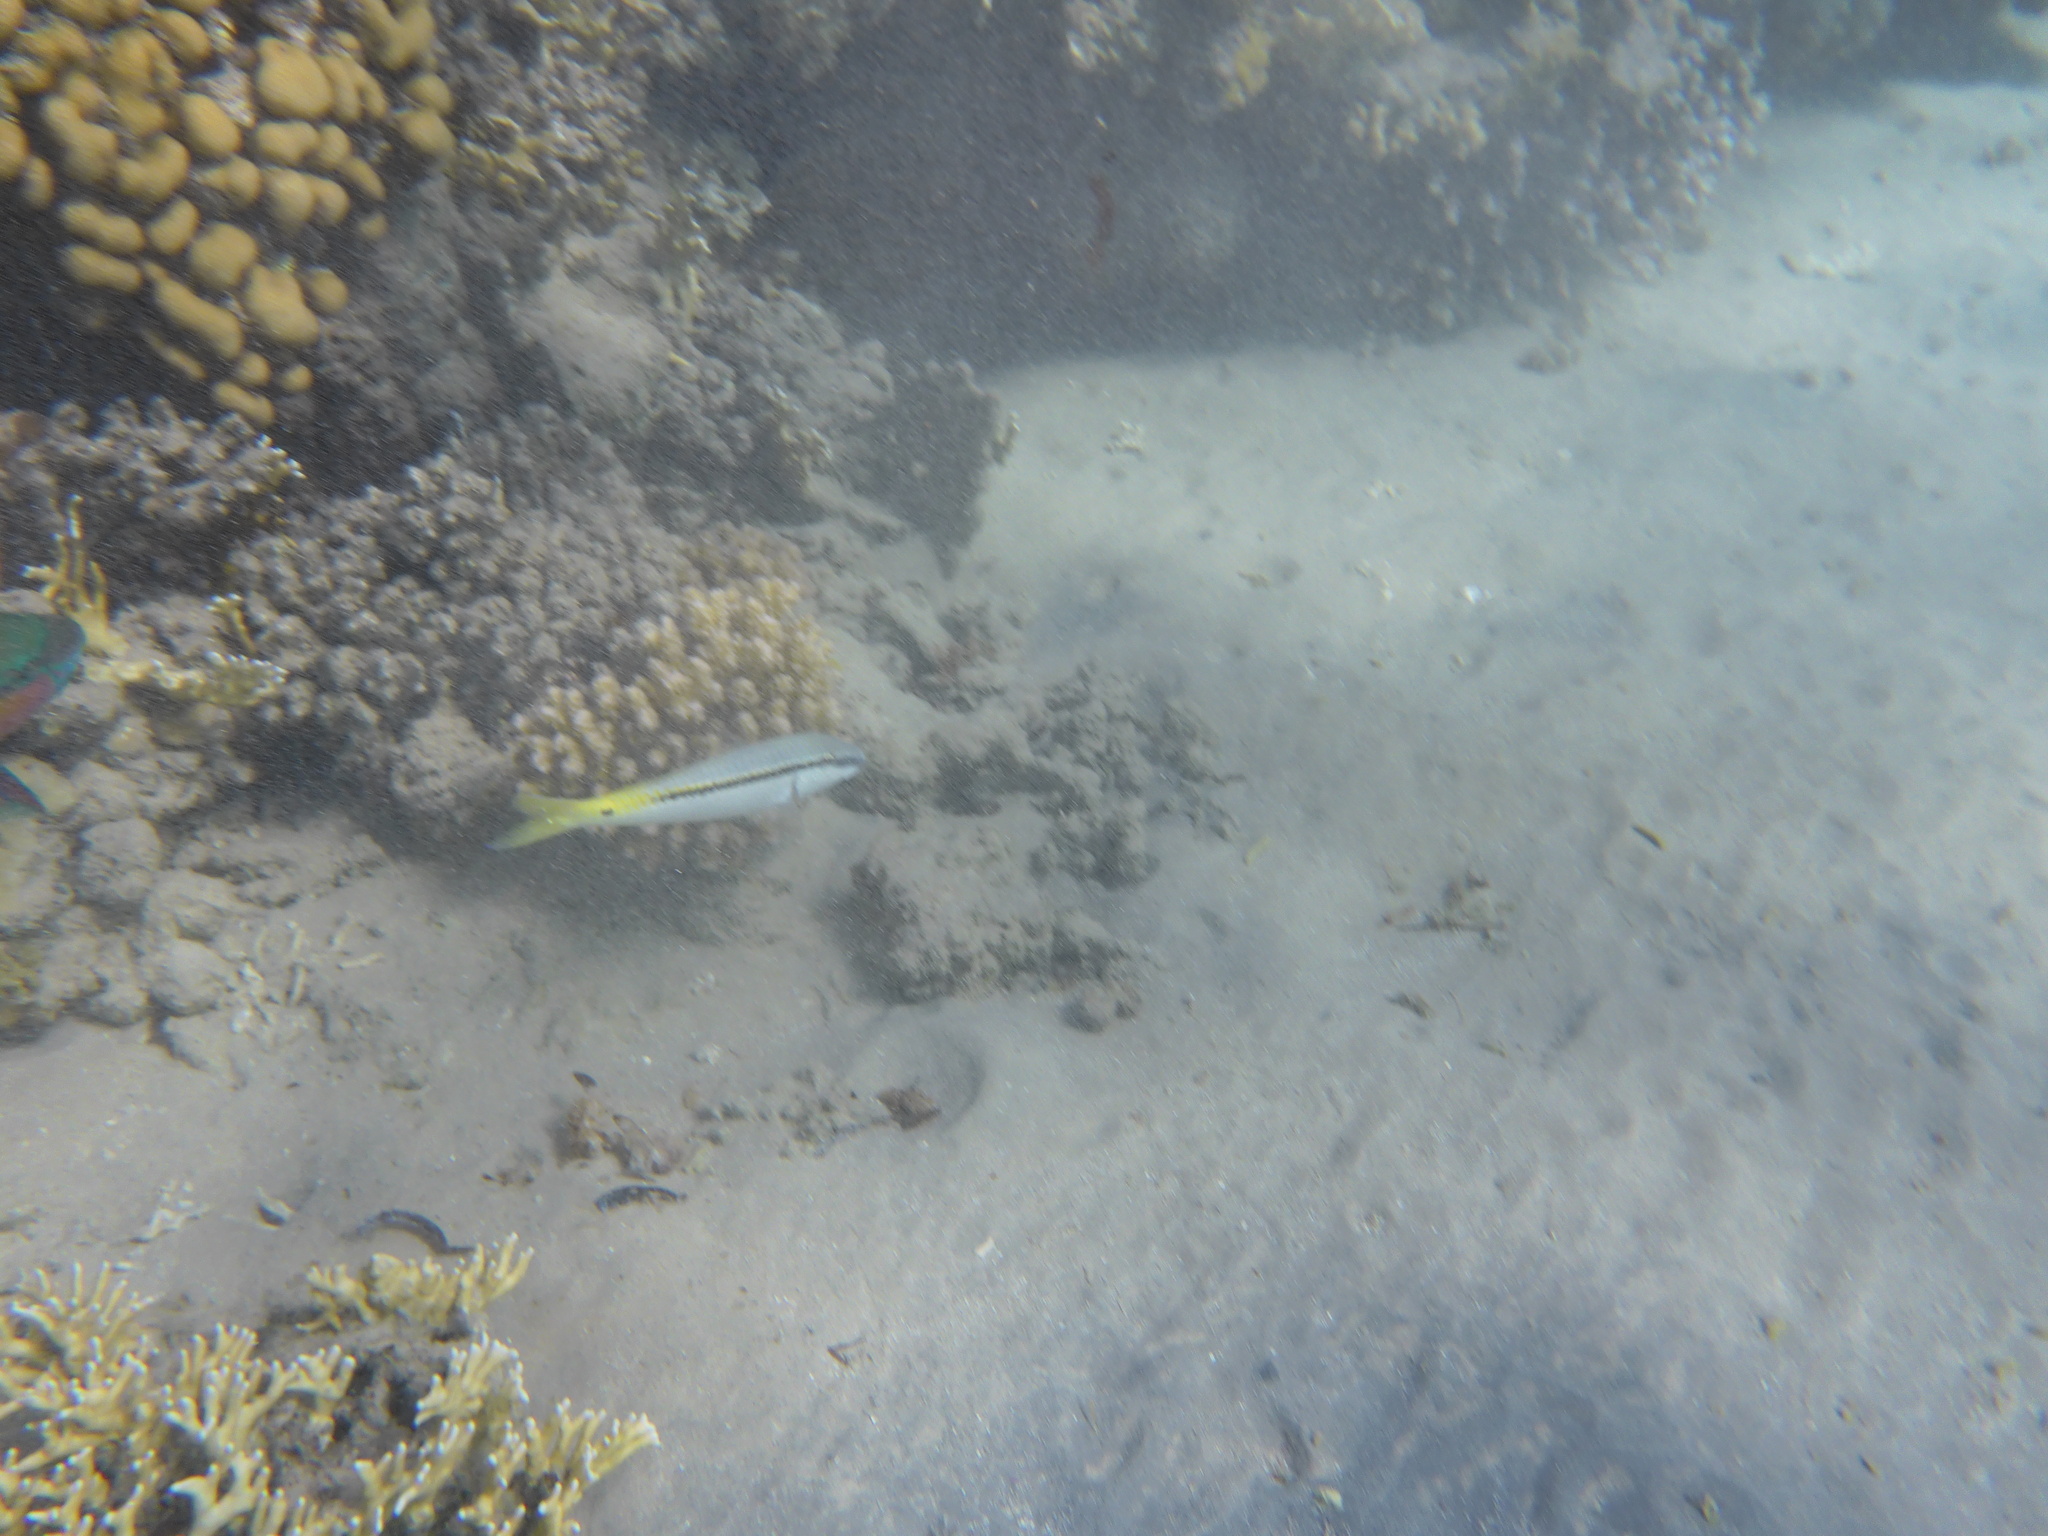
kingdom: Animalia
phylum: Chordata
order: Perciformes
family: Mullidae
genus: Parupeneus
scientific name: Parupeneus forsskali
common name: Red sea goatfish
